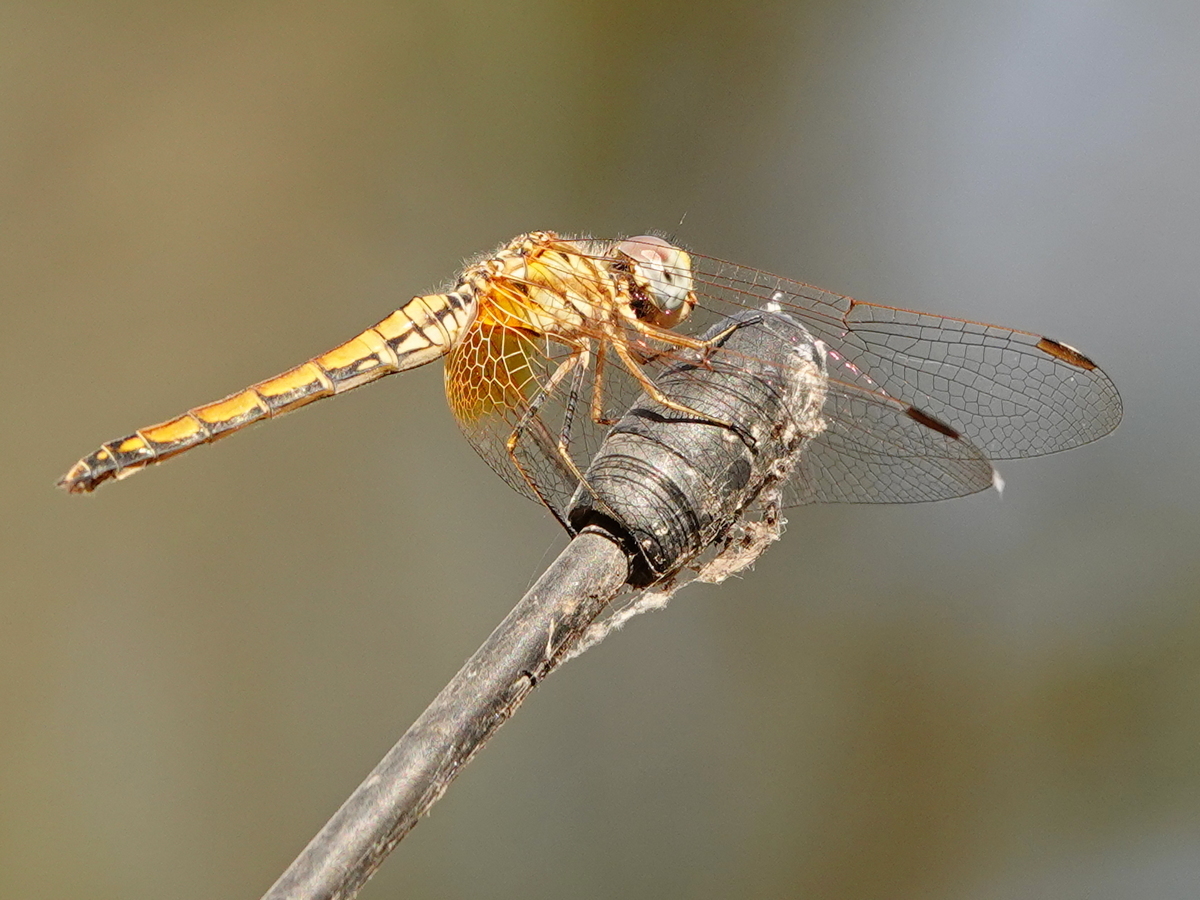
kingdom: Animalia
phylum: Arthropoda
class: Insecta
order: Odonata
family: Libellulidae
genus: Trithemis
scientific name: Trithemis aurora
